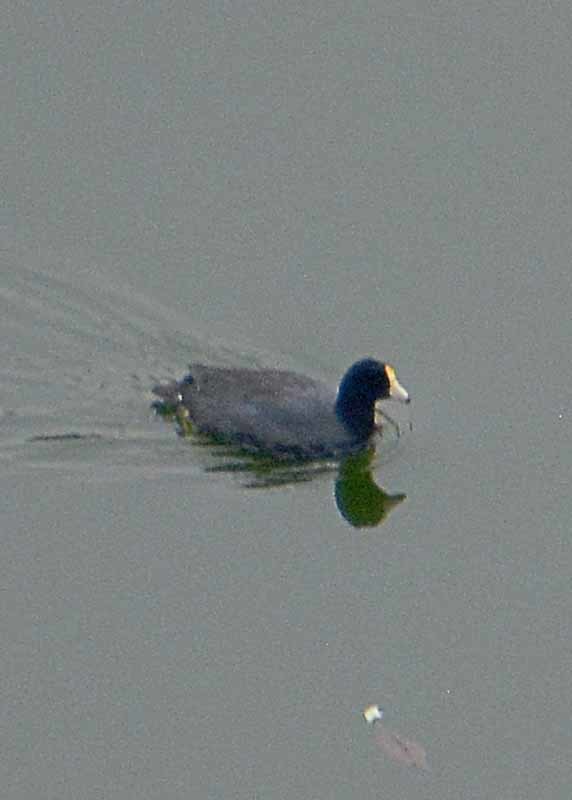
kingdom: Animalia
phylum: Chordata
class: Aves
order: Gruiformes
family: Rallidae
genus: Fulica
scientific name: Fulica americana
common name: American coot
